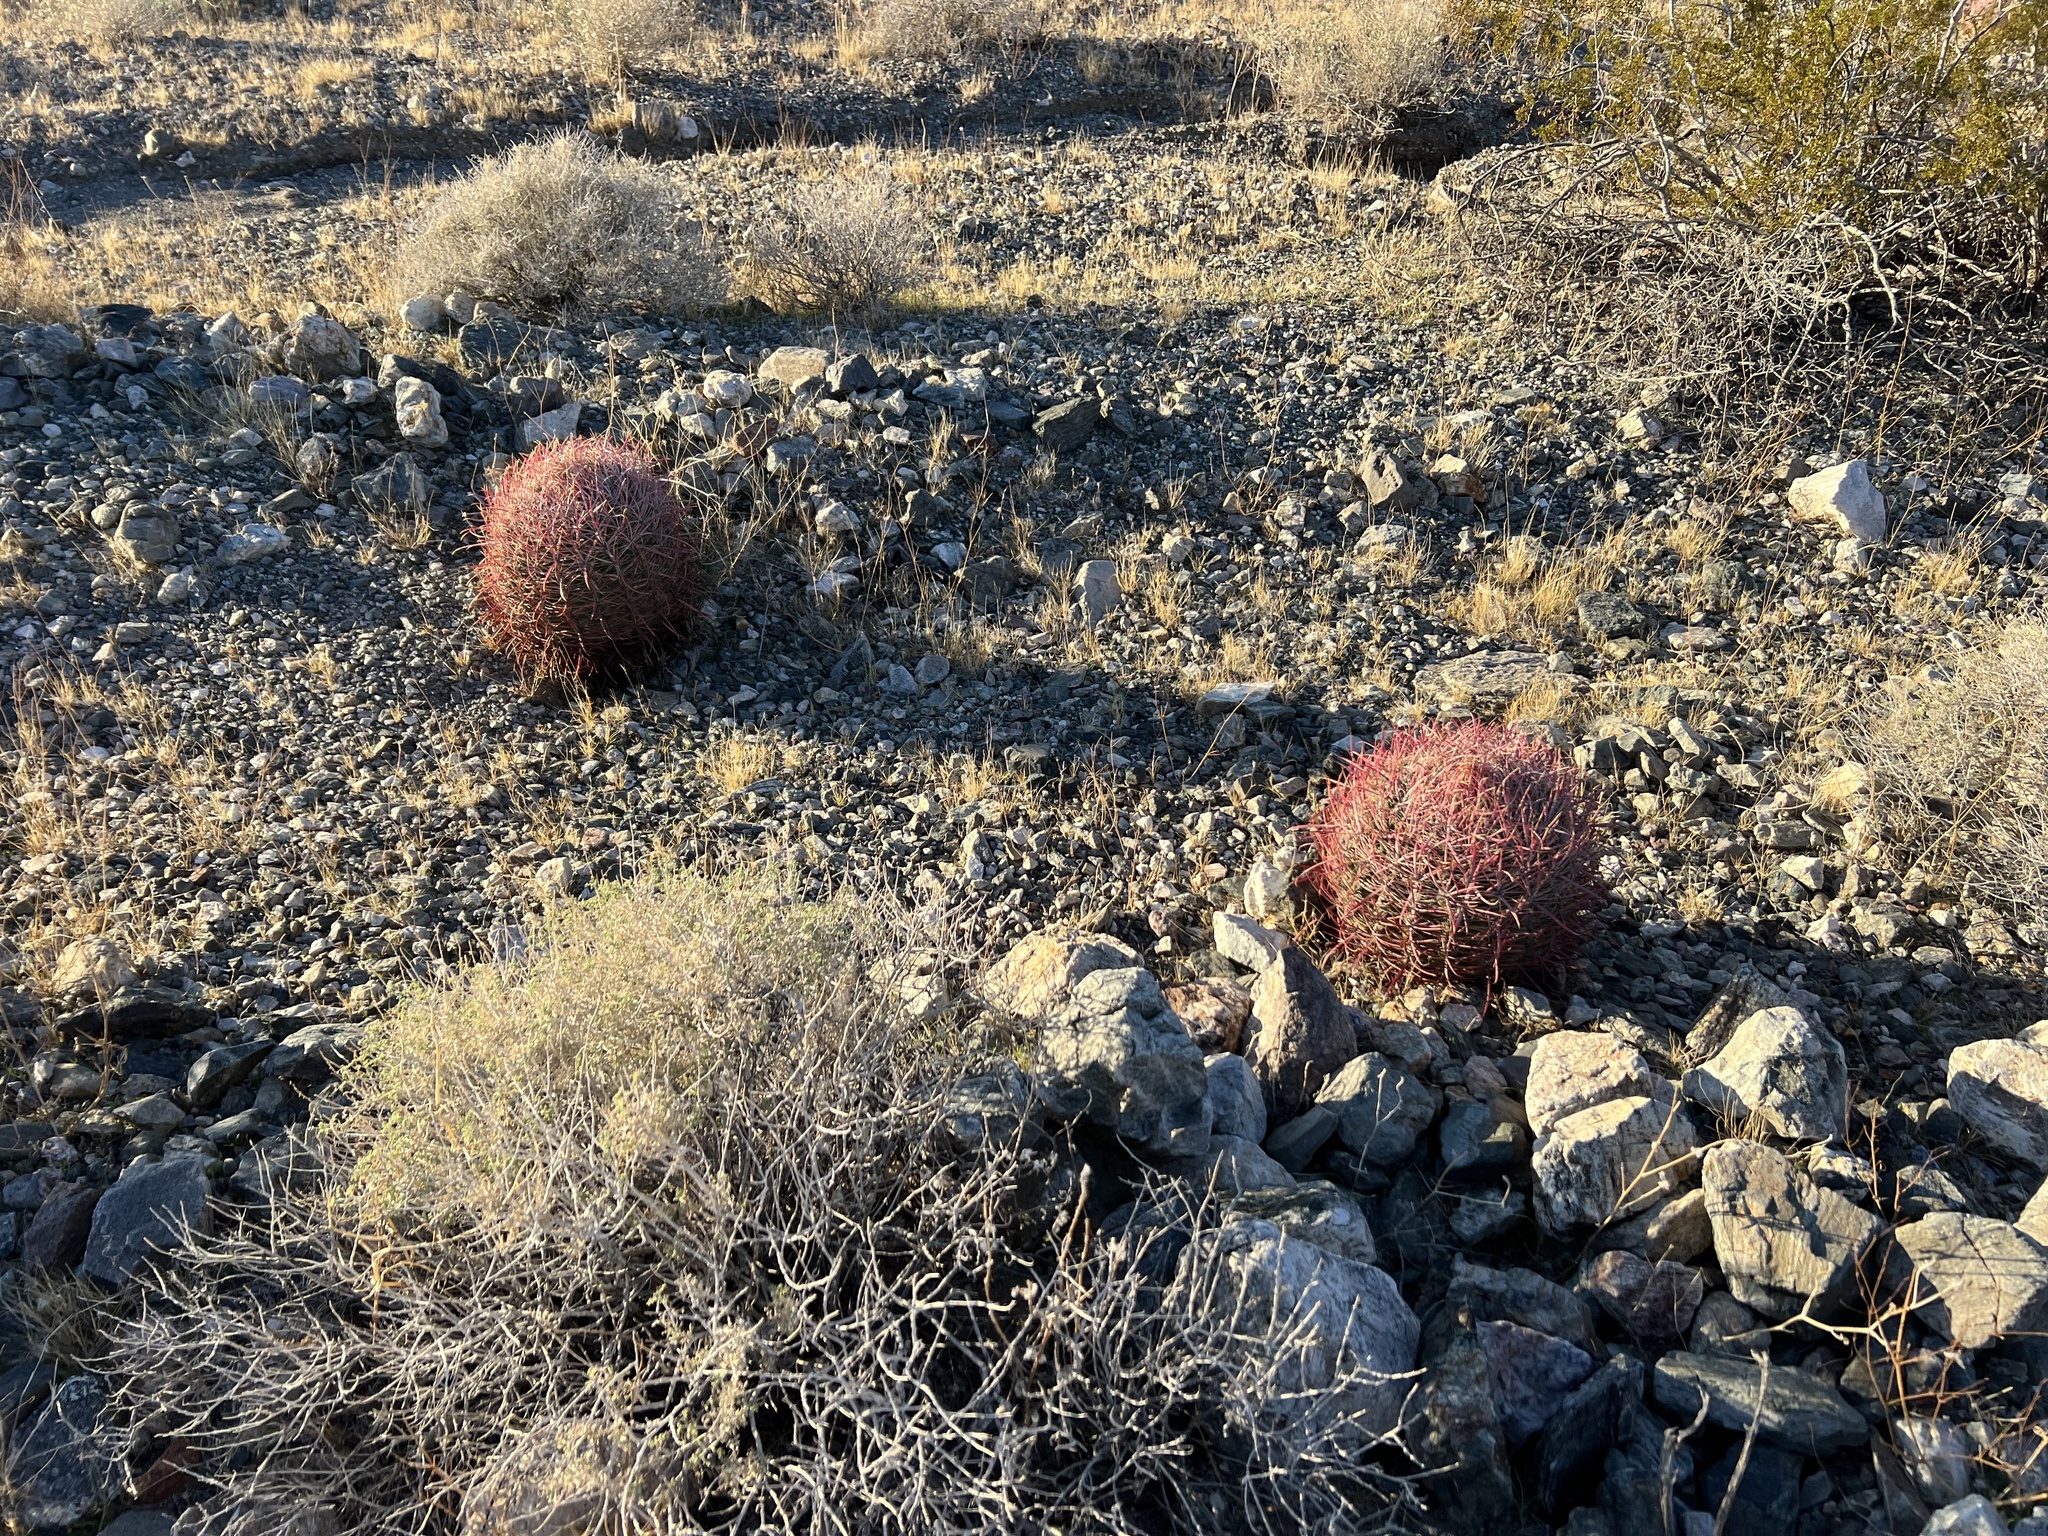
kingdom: Plantae
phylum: Tracheophyta
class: Magnoliopsida
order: Caryophyllales
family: Cactaceae
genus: Ferocactus
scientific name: Ferocactus cylindraceus
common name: California barrel cactus
